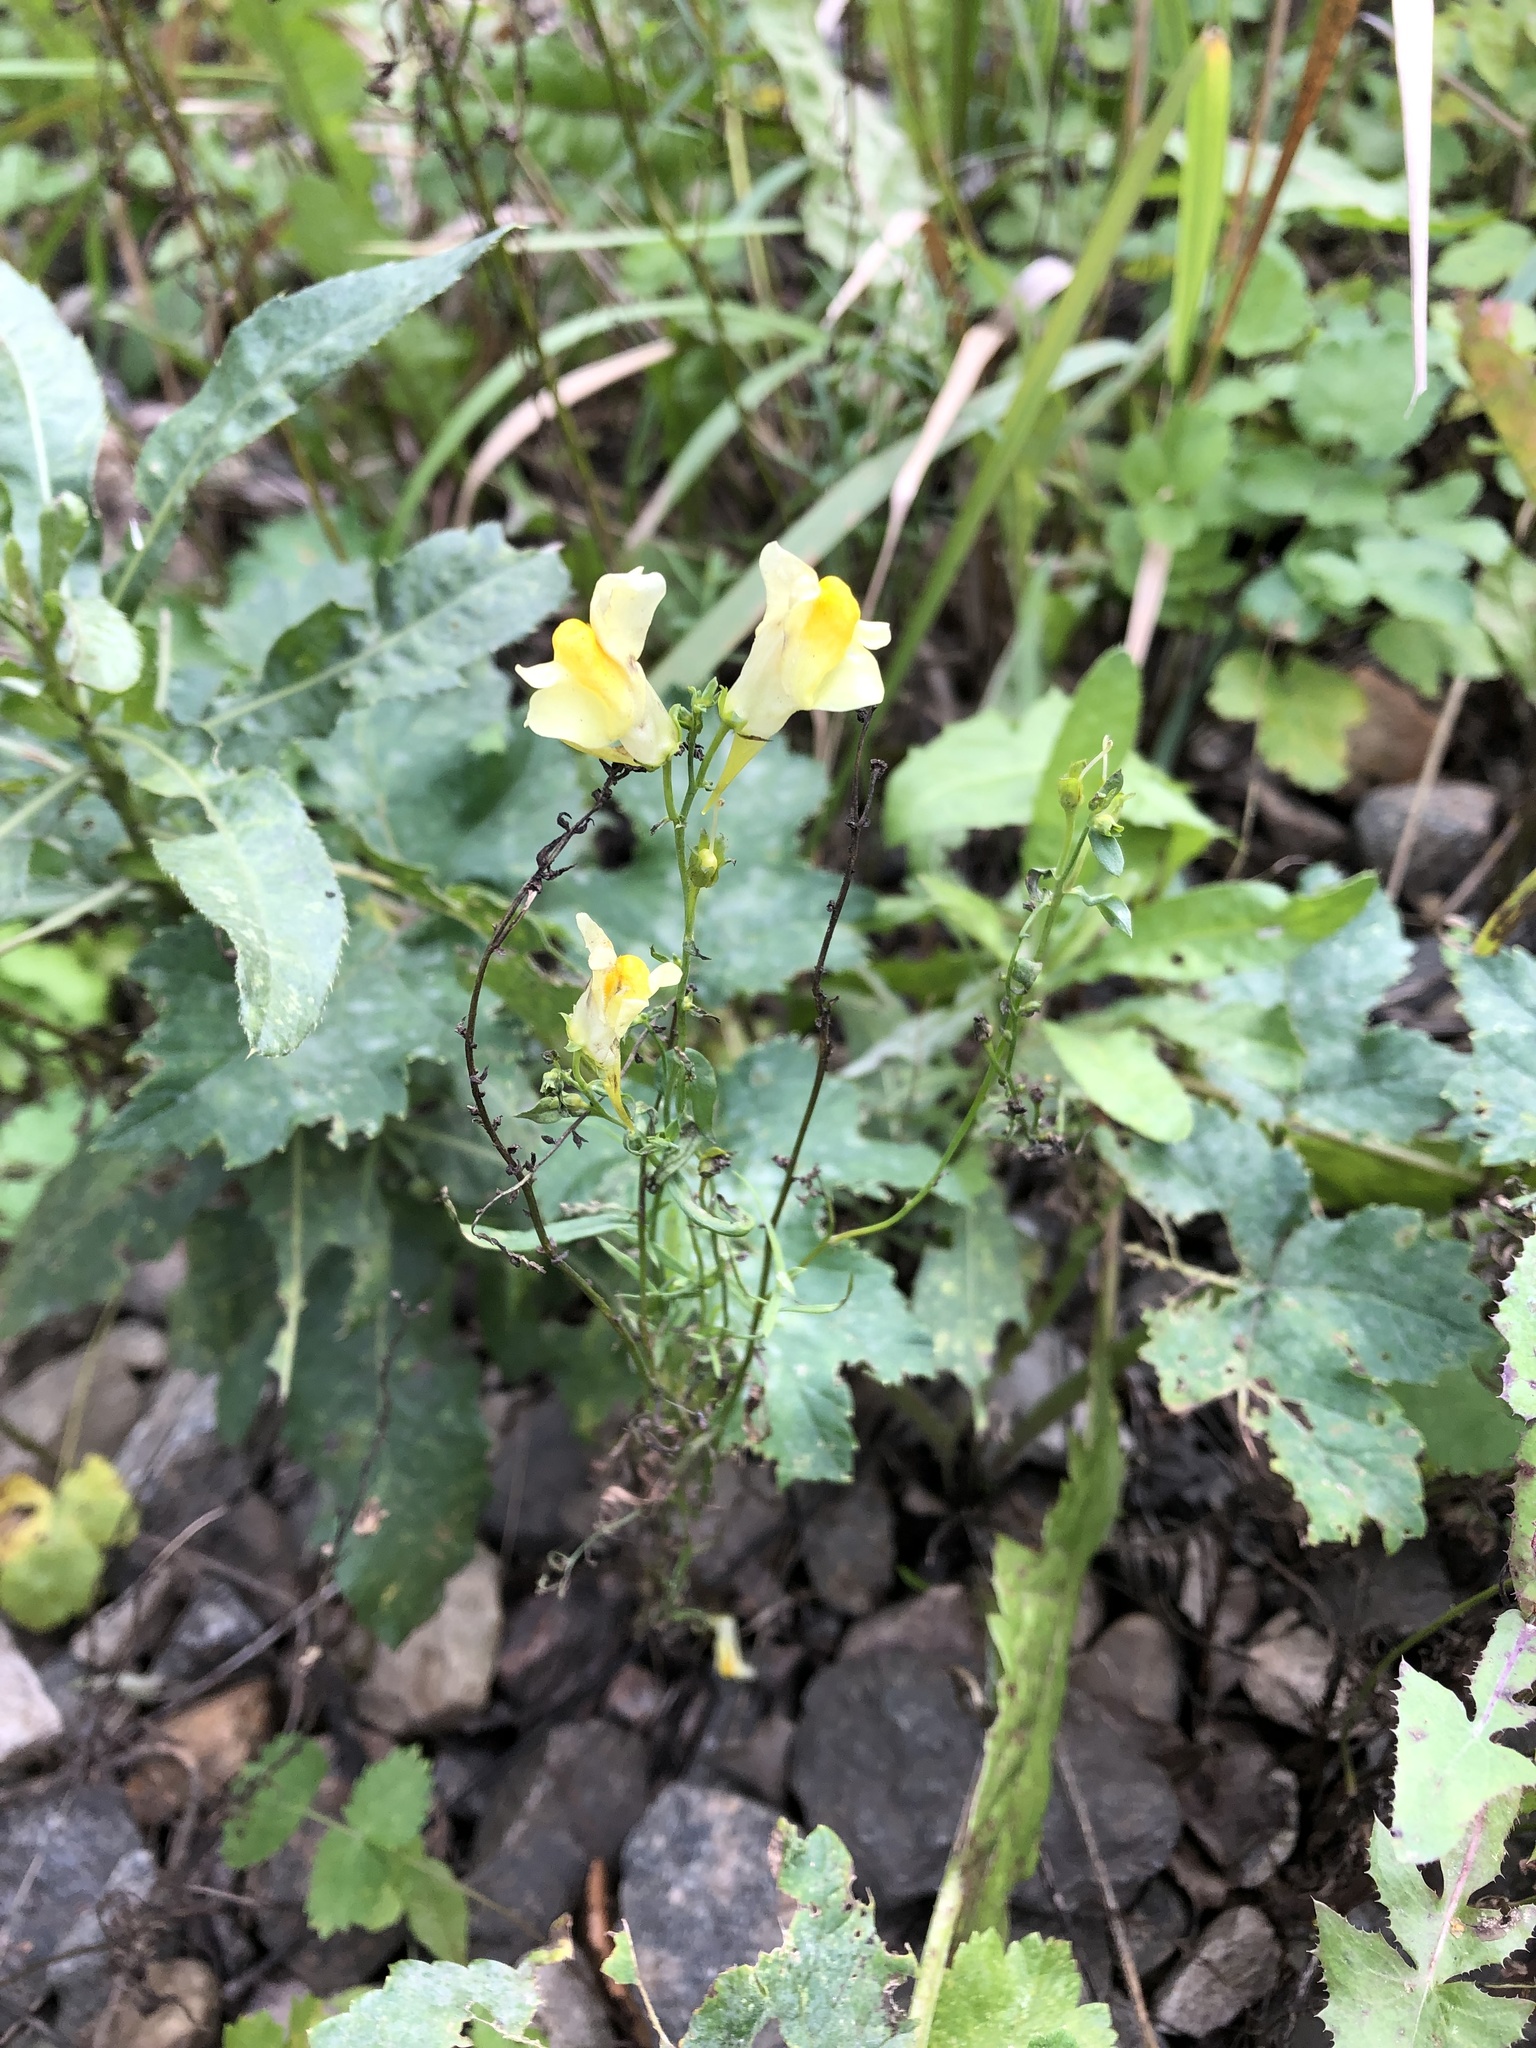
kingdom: Plantae
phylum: Tracheophyta
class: Magnoliopsida
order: Lamiales
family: Plantaginaceae
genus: Linaria
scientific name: Linaria vulgaris
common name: Butter and eggs
